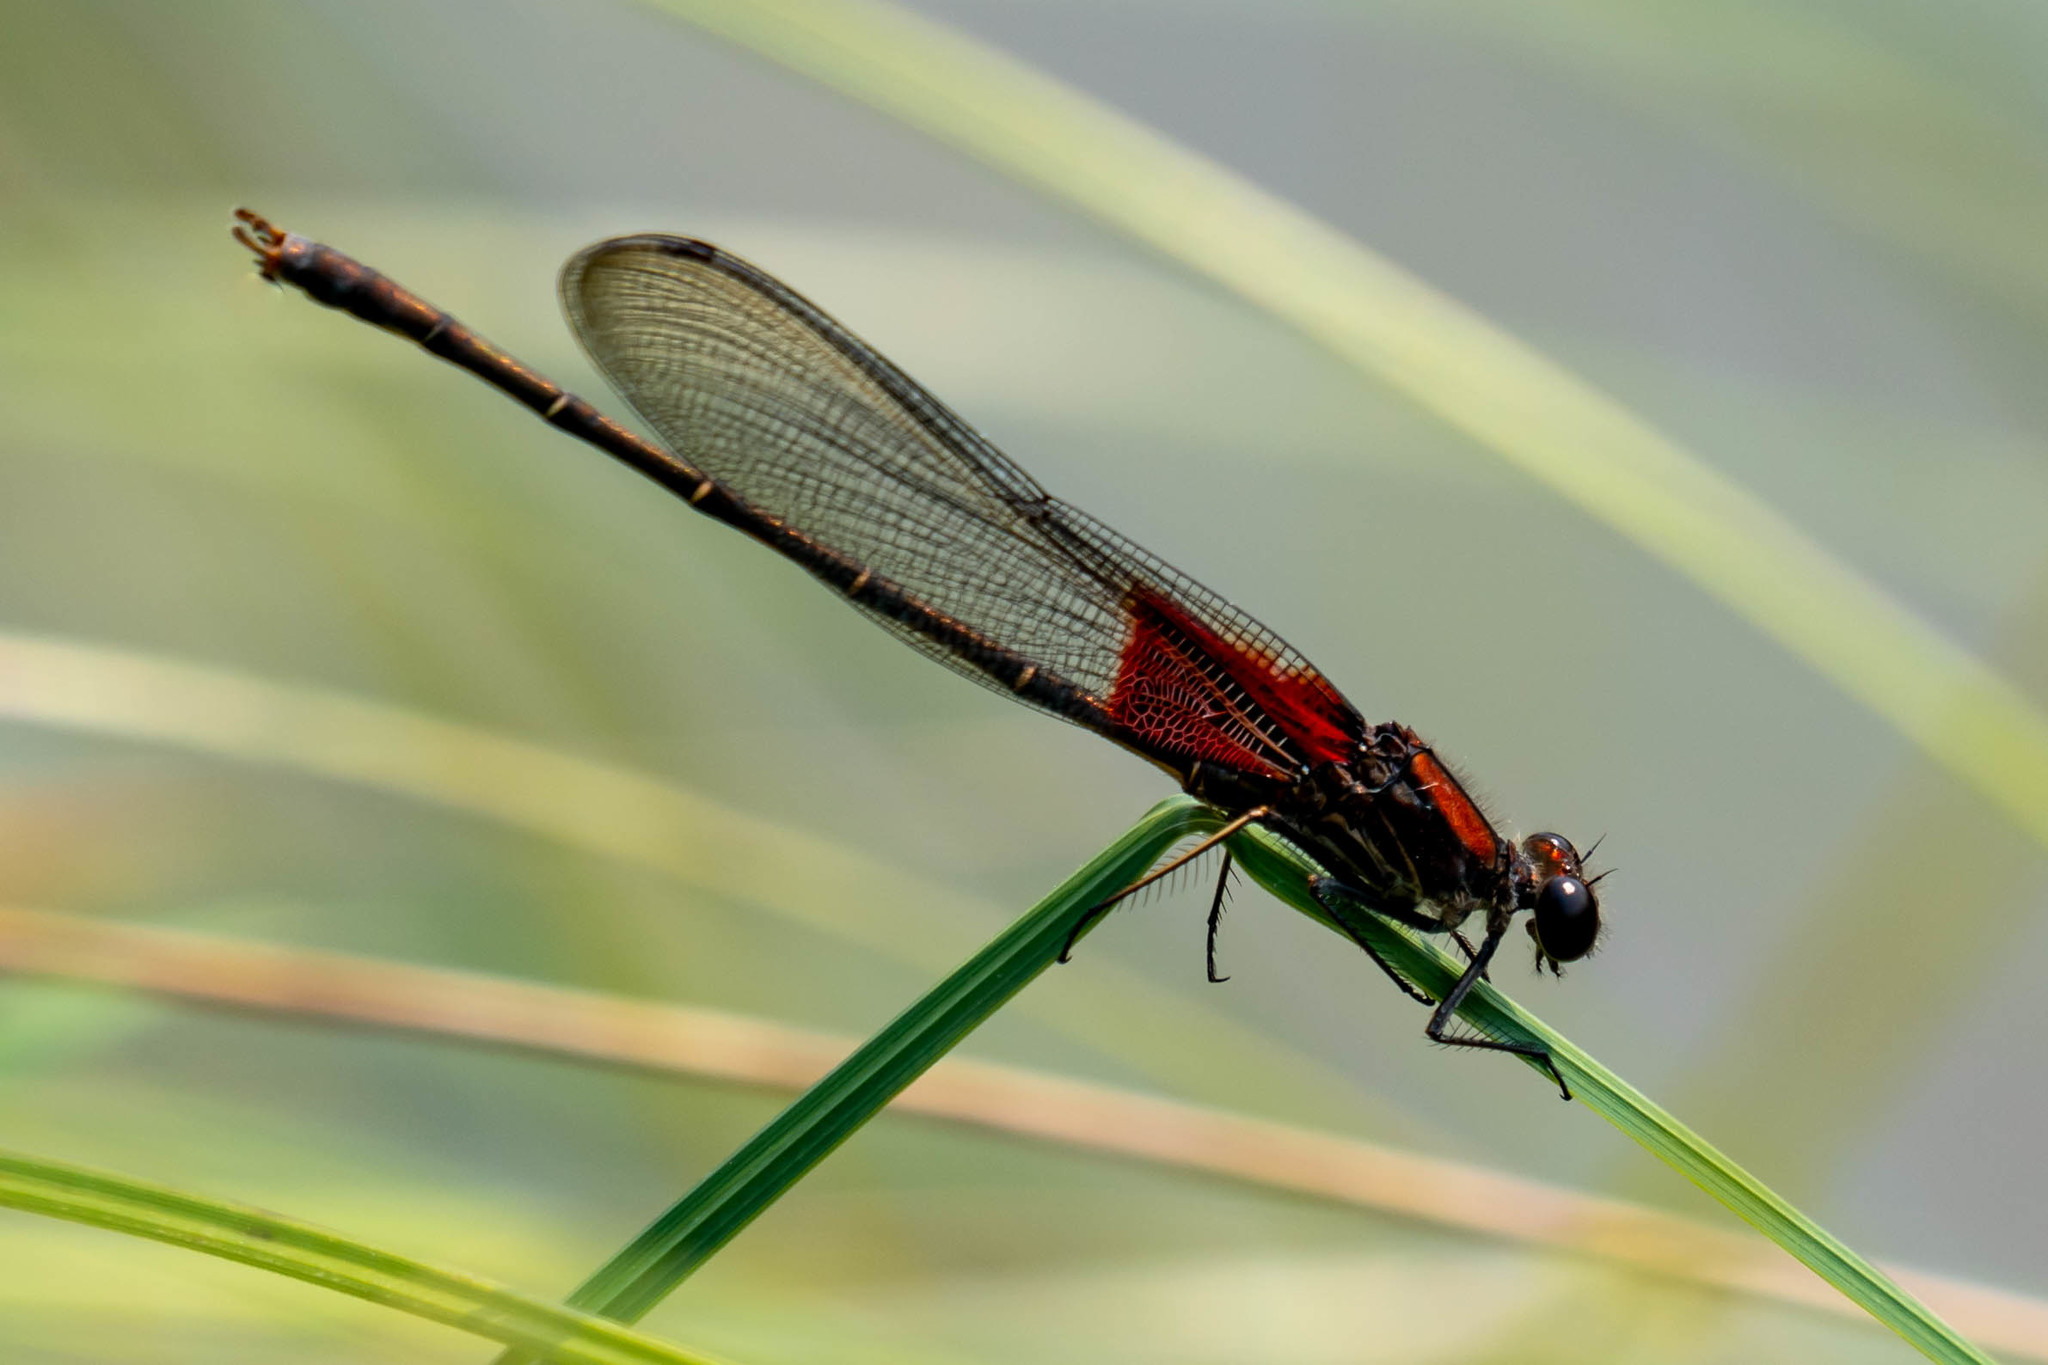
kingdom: Animalia
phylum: Arthropoda
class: Insecta
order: Odonata
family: Calopterygidae
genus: Hetaerina
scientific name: Hetaerina americana
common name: American rubyspot
